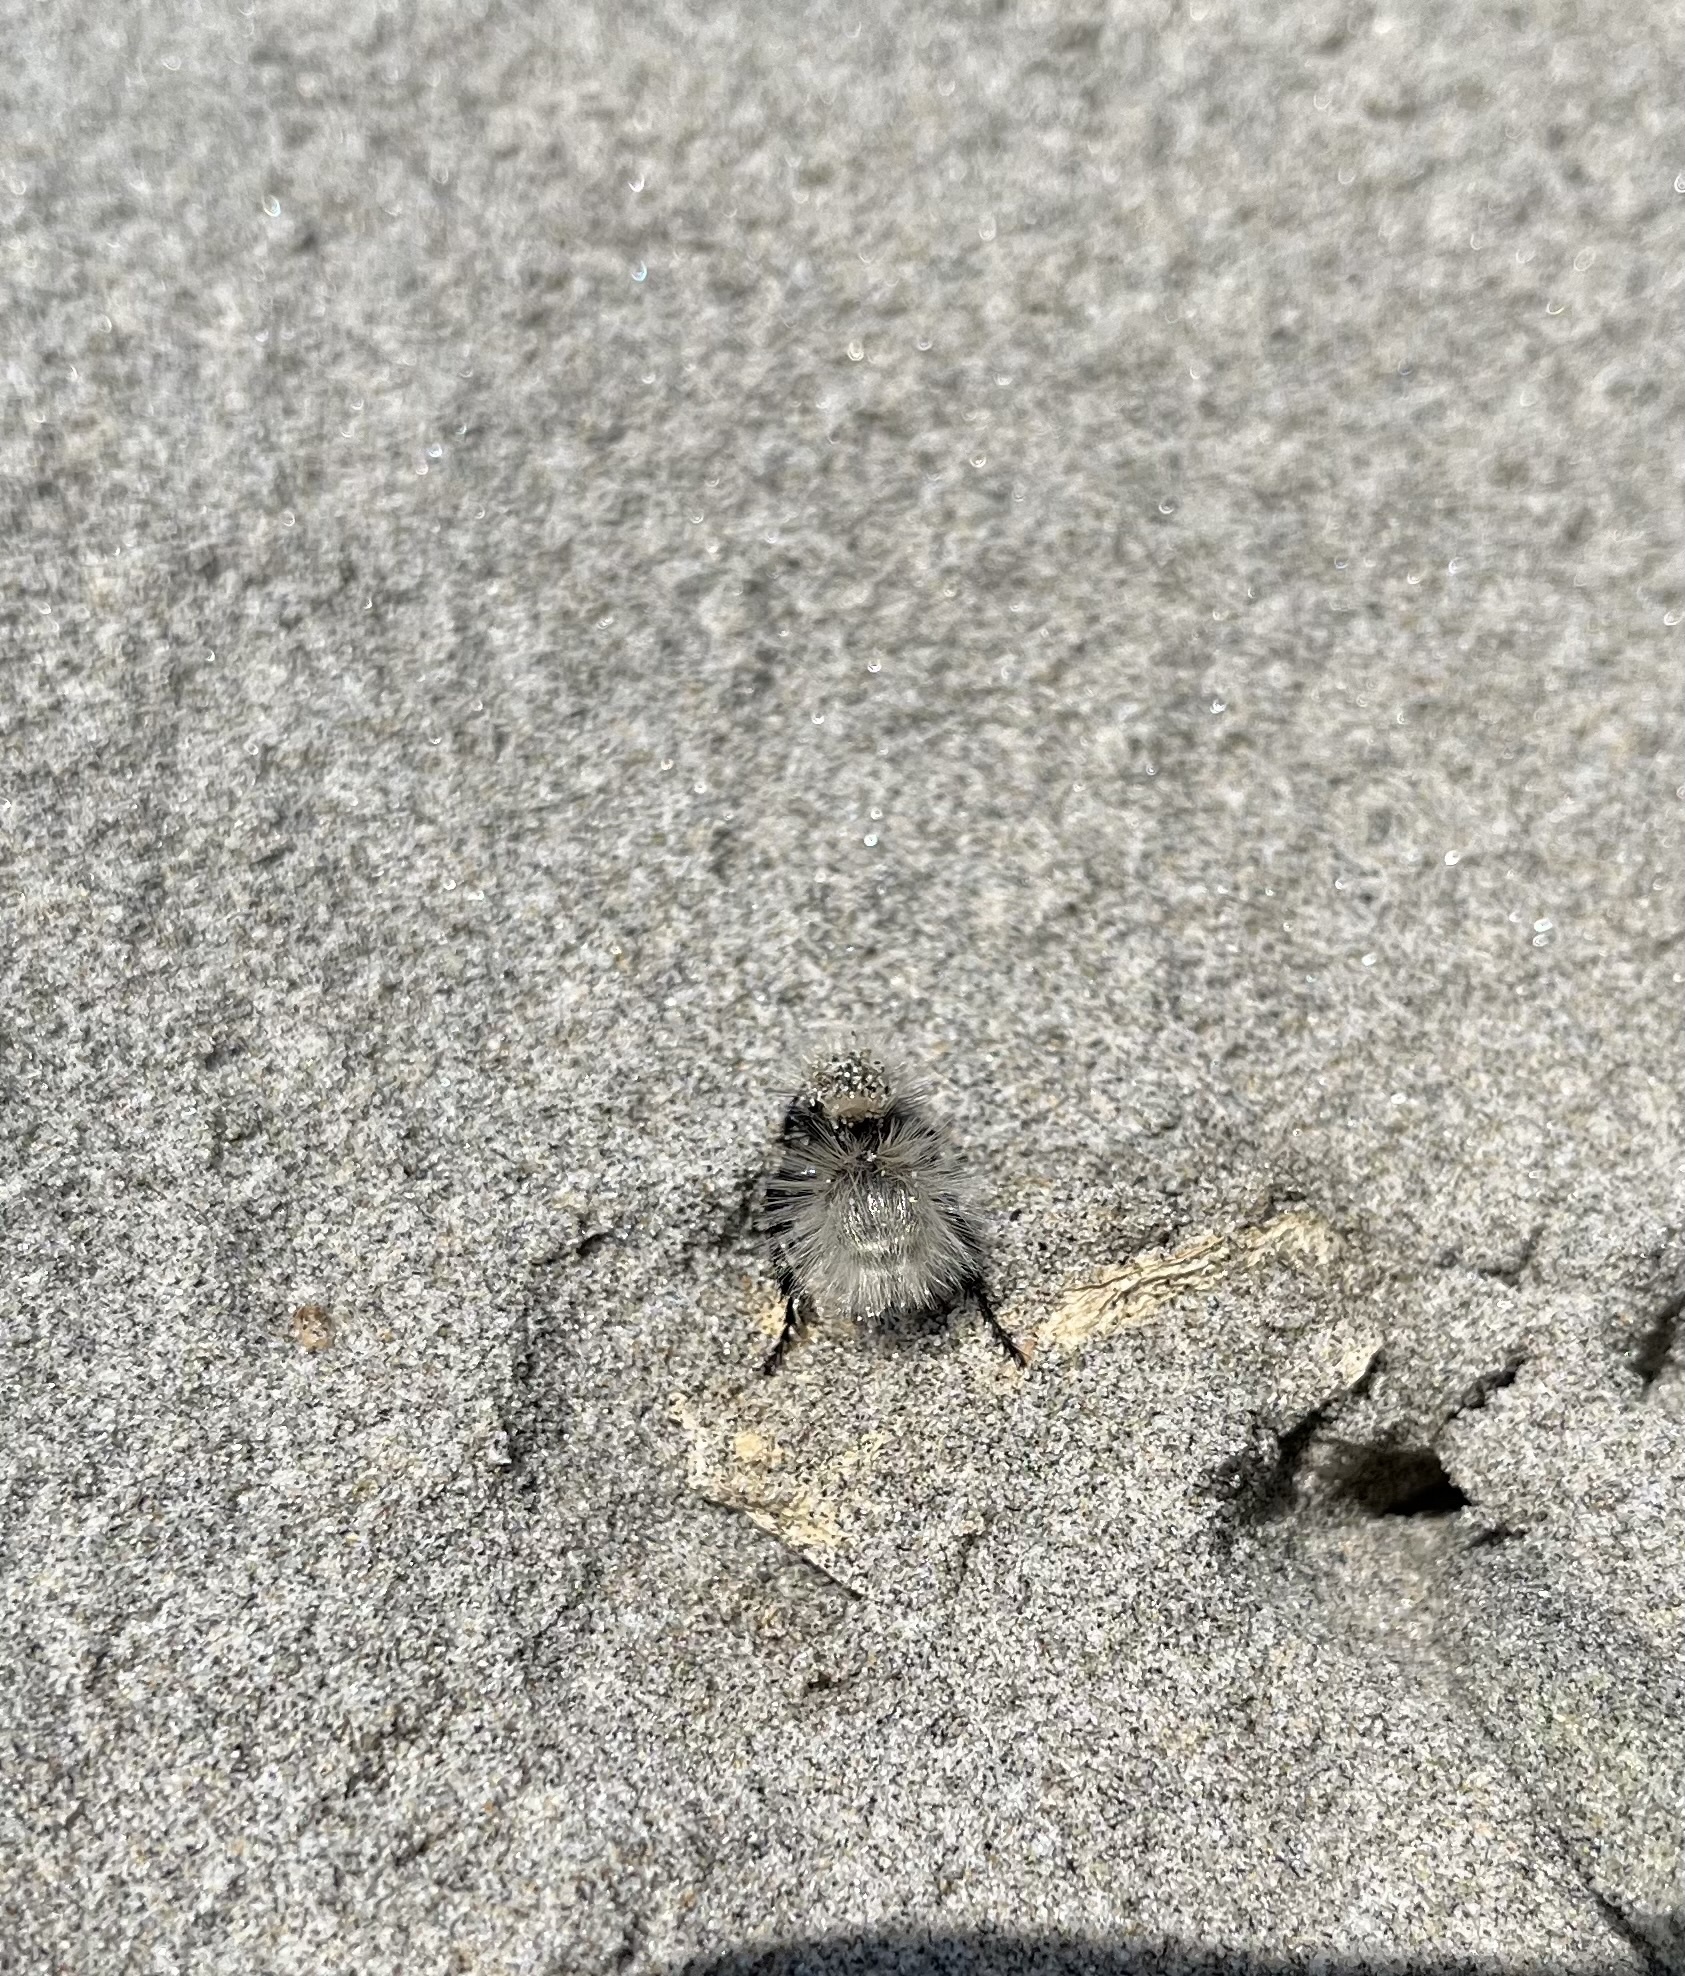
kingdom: Animalia
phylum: Arthropoda
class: Insecta
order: Hymenoptera
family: Mutillidae
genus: Dasymutilla
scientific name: Dasymutilla
